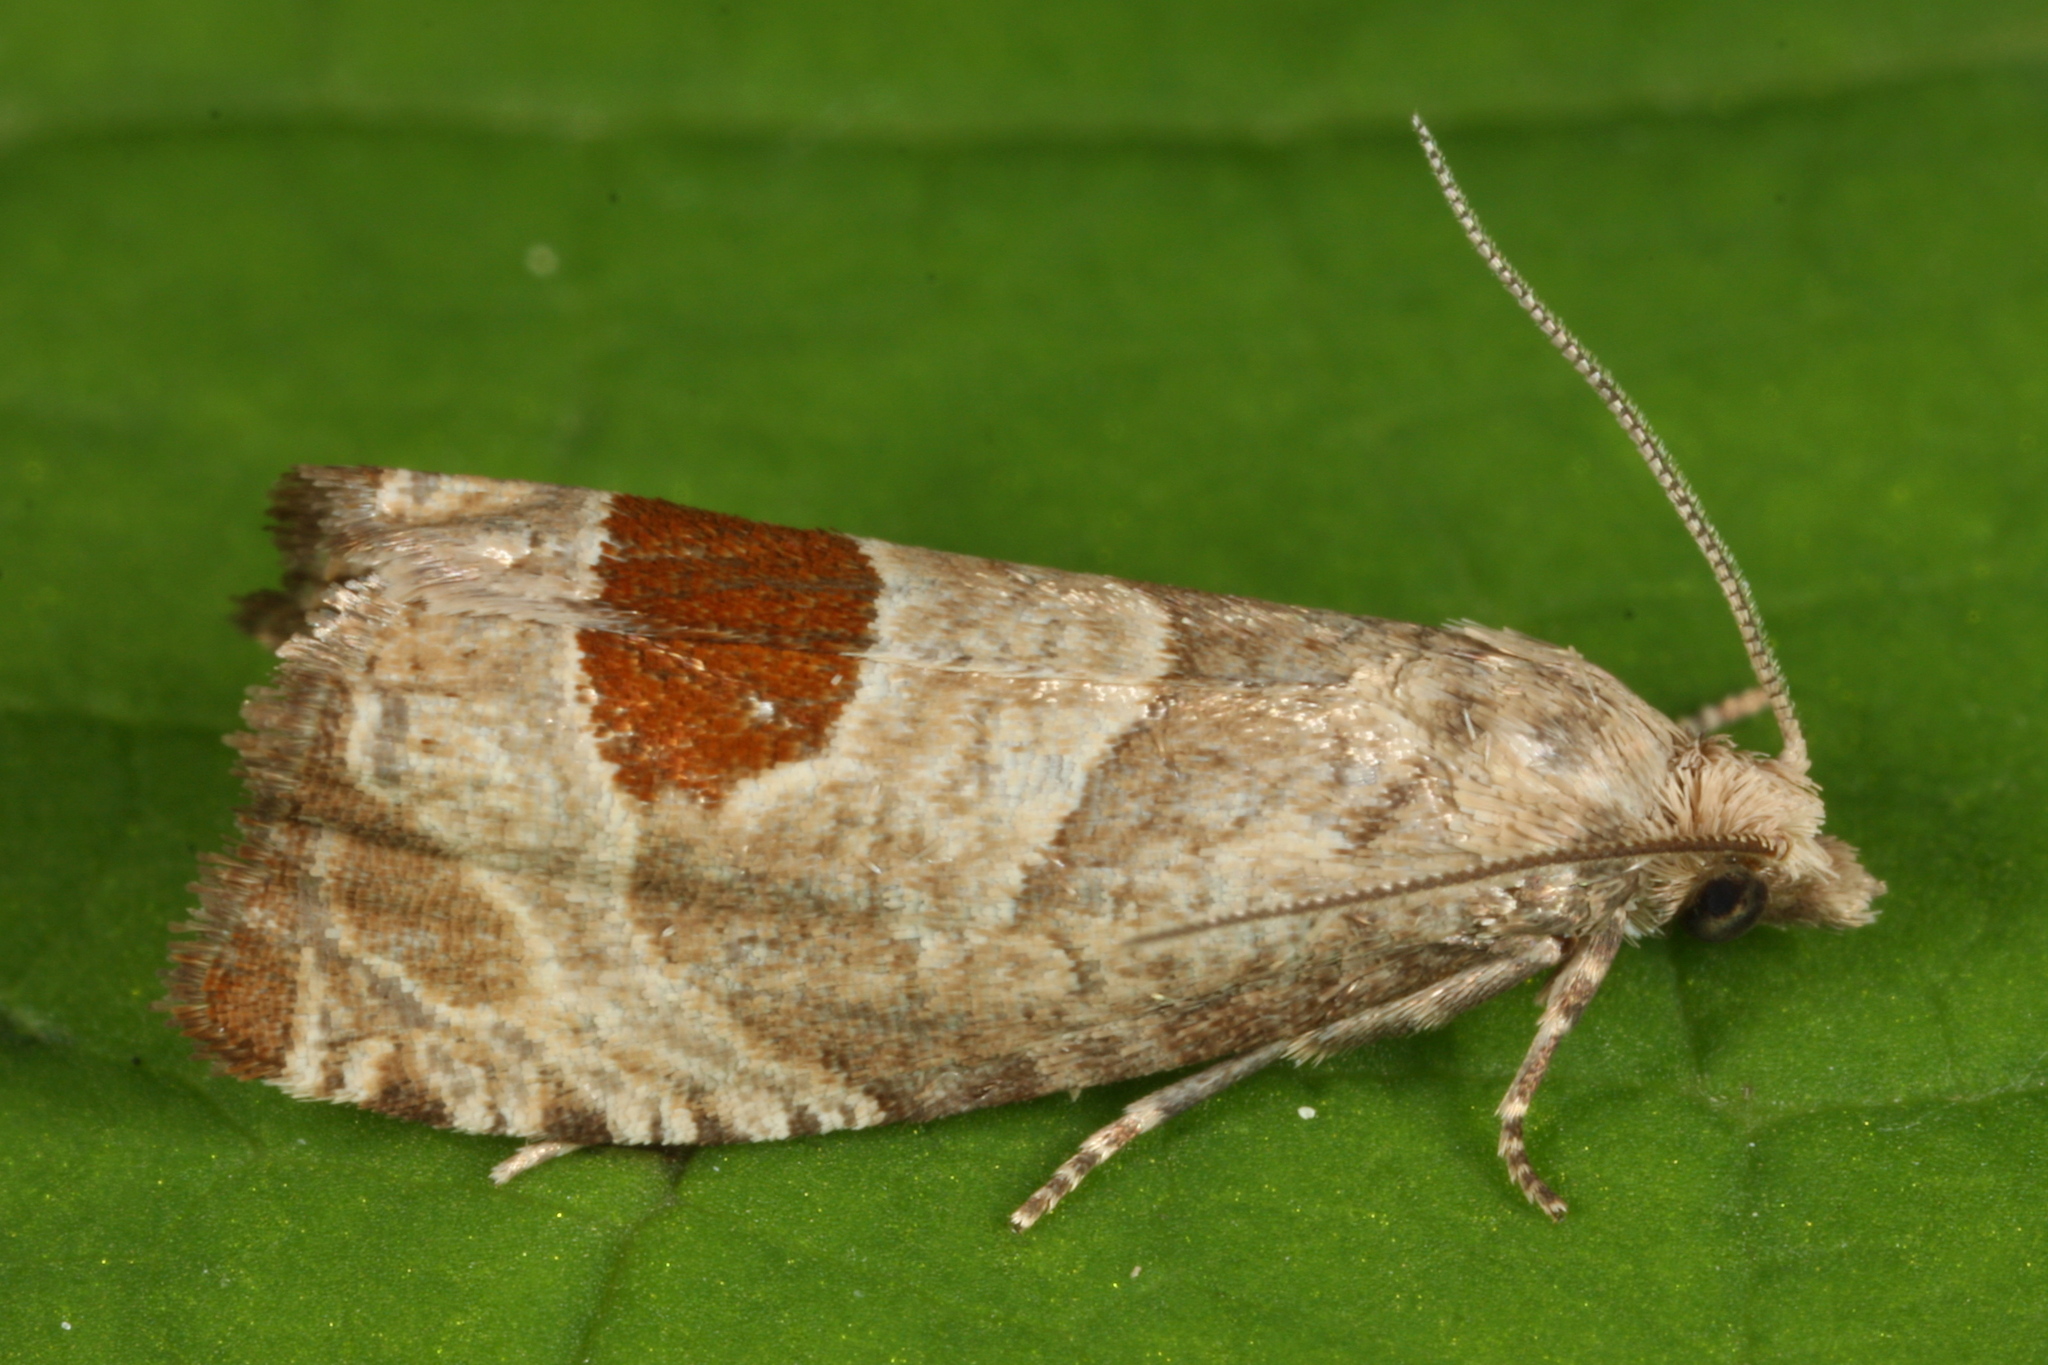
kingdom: Animalia
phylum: Arthropoda
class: Insecta
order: Lepidoptera
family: Tortricidae
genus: Notocelia
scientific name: Notocelia uddmanniana
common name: Bramble shoot moth
